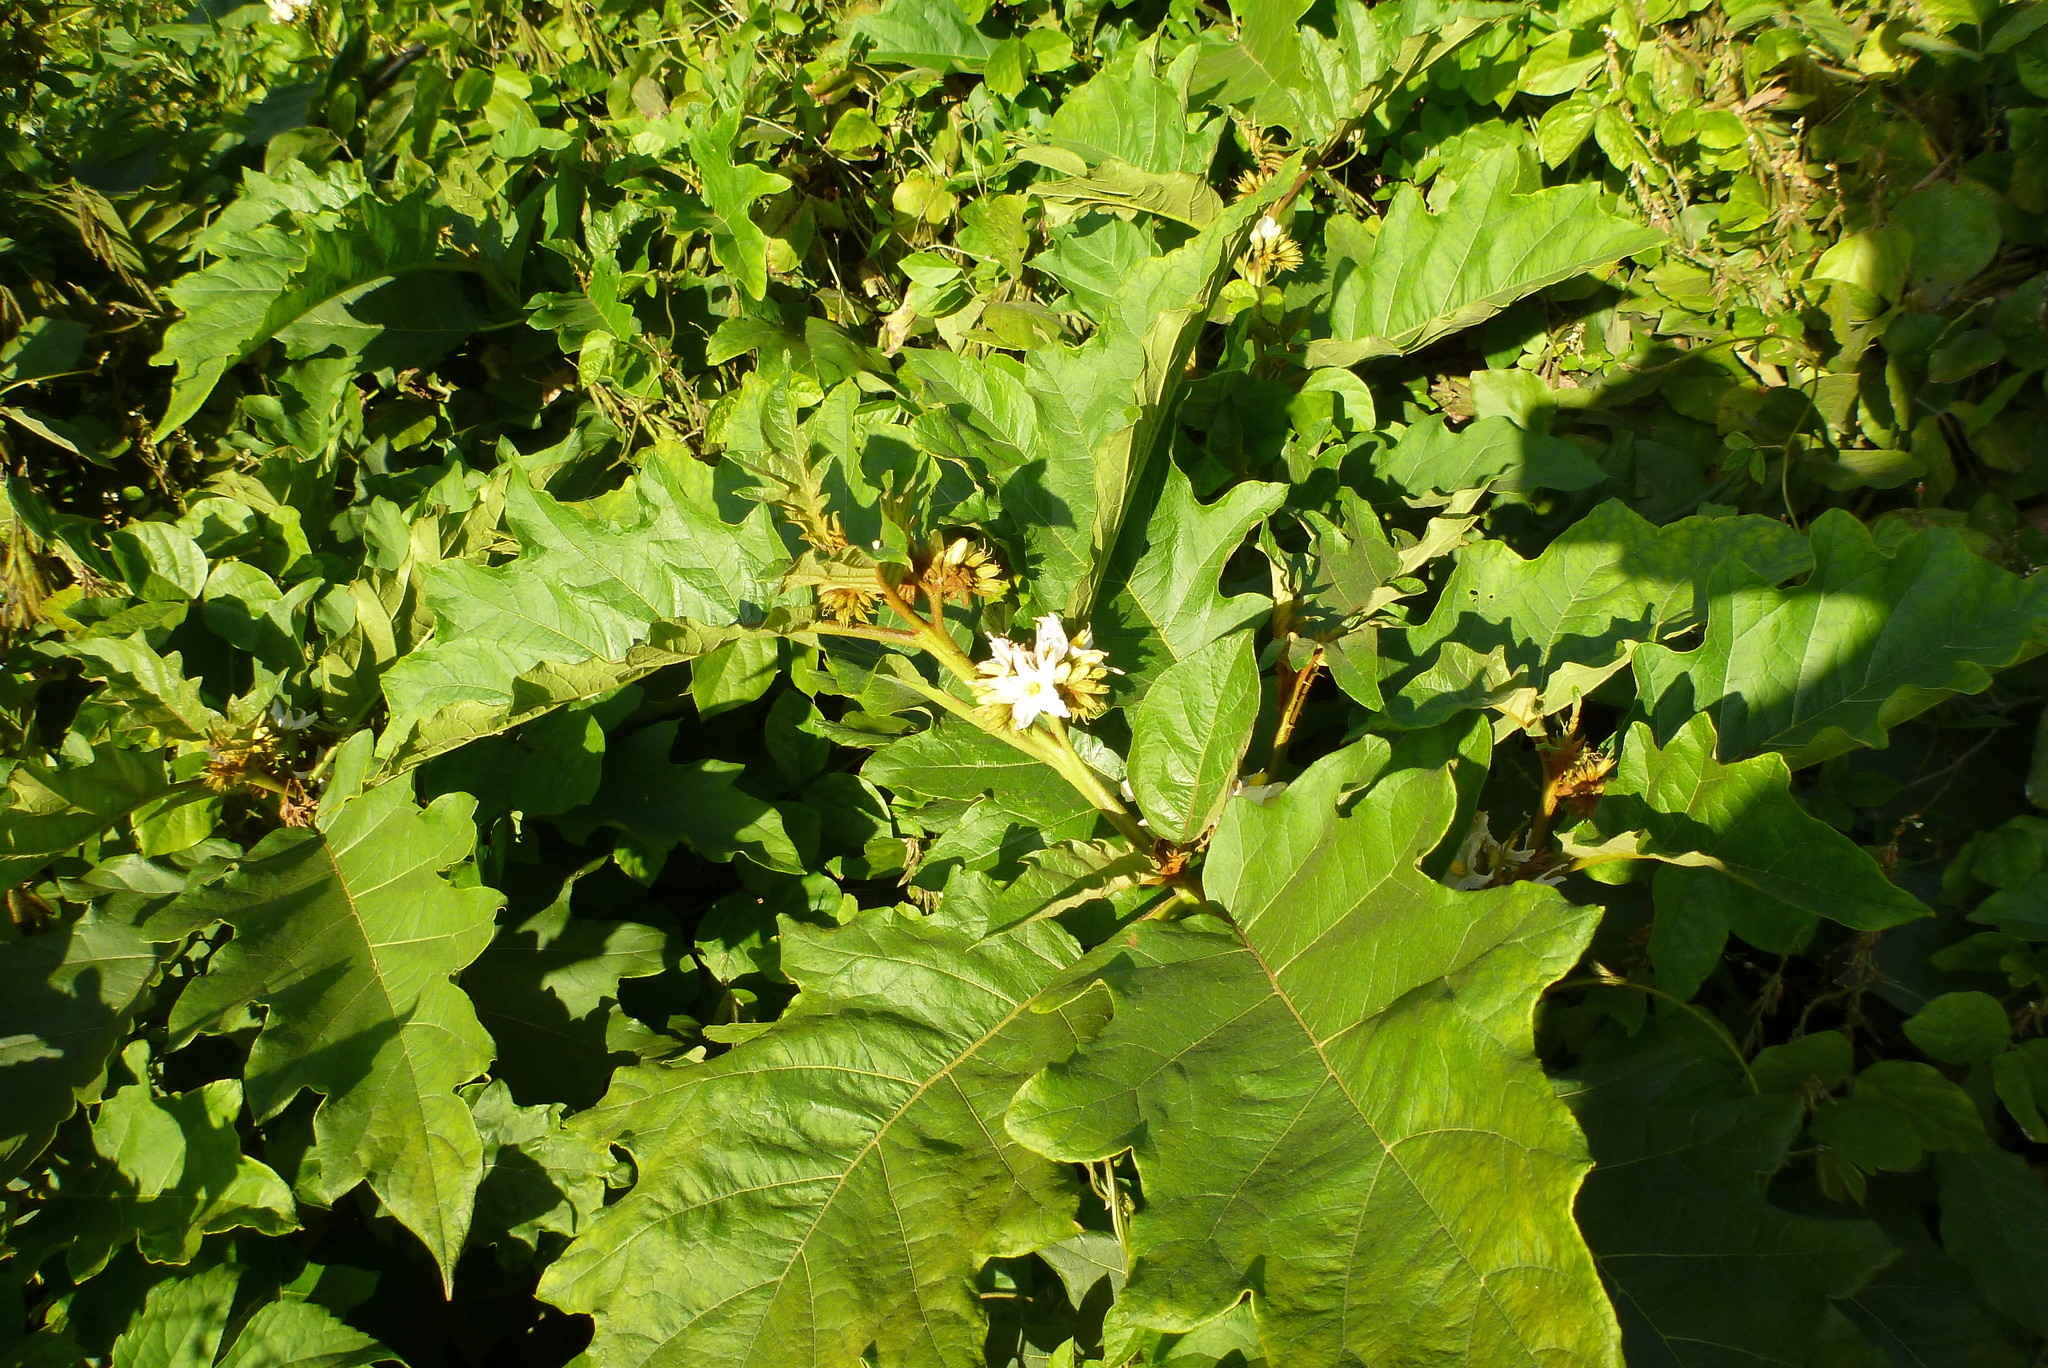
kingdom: Plantae
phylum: Tracheophyta
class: Magnoliopsida
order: Solanales
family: Solanaceae
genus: Solanum
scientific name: Solanum chrysotrichum
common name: Nightshade
